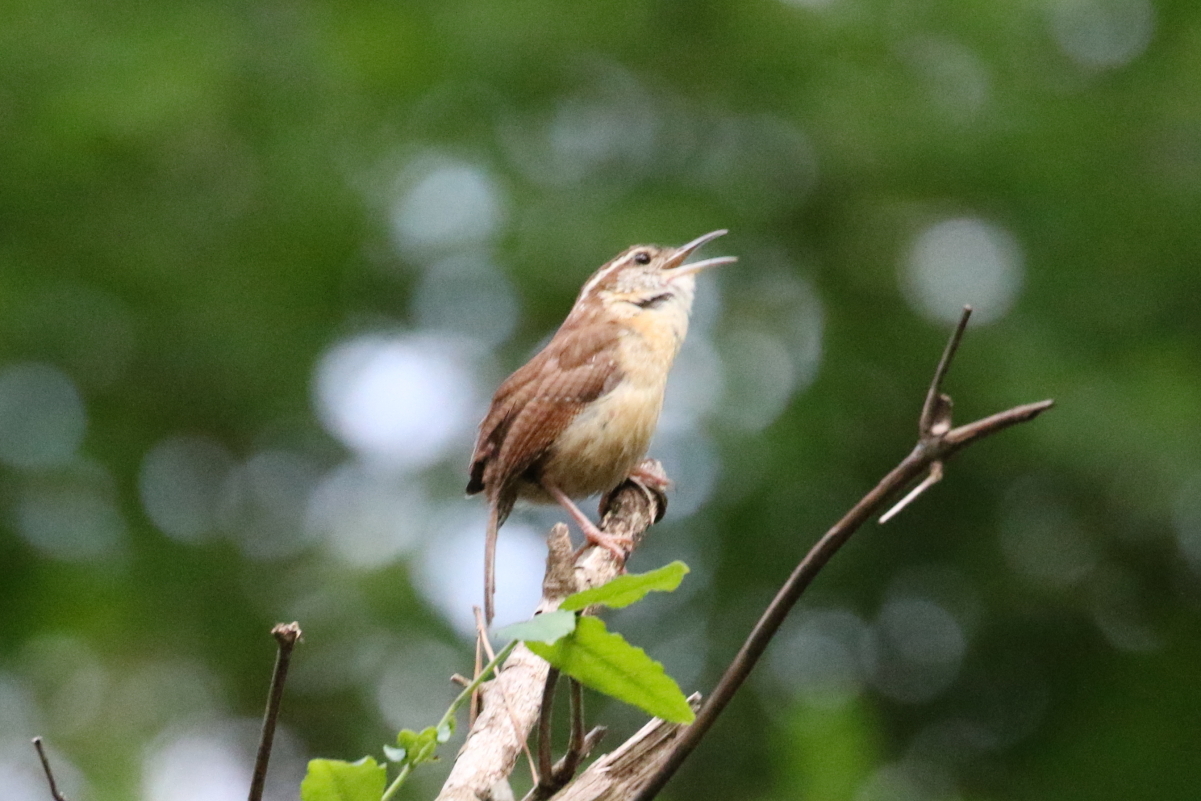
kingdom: Animalia
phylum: Chordata
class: Aves
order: Passeriformes
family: Troglodytidae
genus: Thryothorus
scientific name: Thryothorus ludovicianus
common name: Carolina wren
